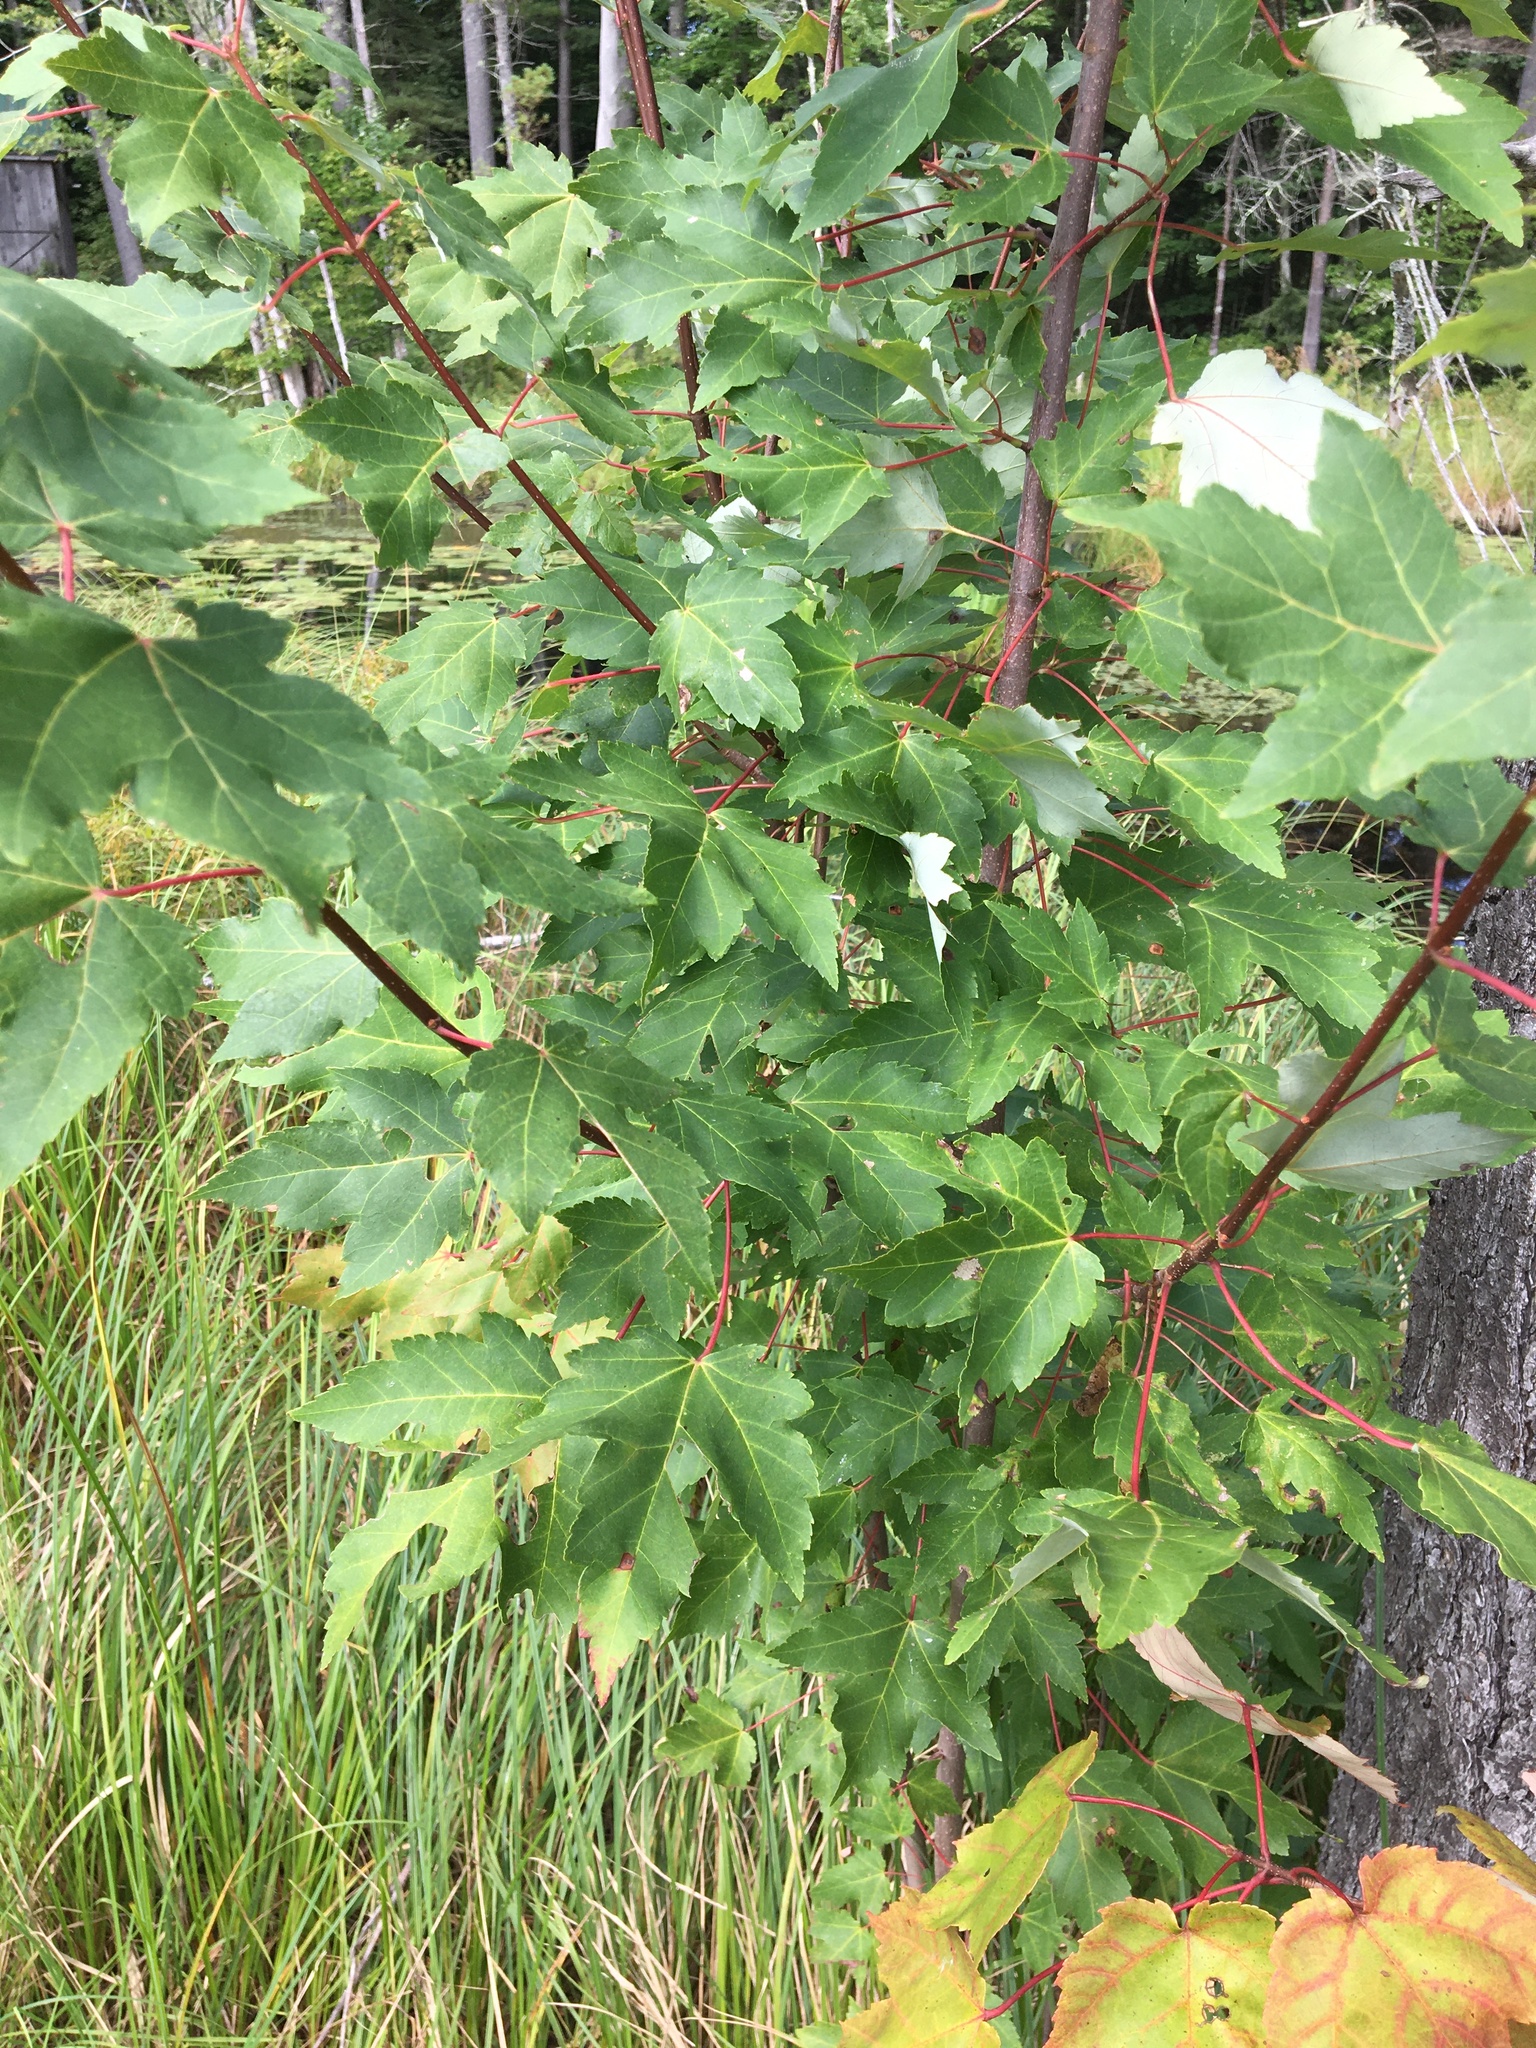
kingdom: Plantae
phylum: Tracheophyta
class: Magnoliopsida
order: Sapindales
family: Sapindaceae
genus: Acer
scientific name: Acer rubrum
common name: Red maple
